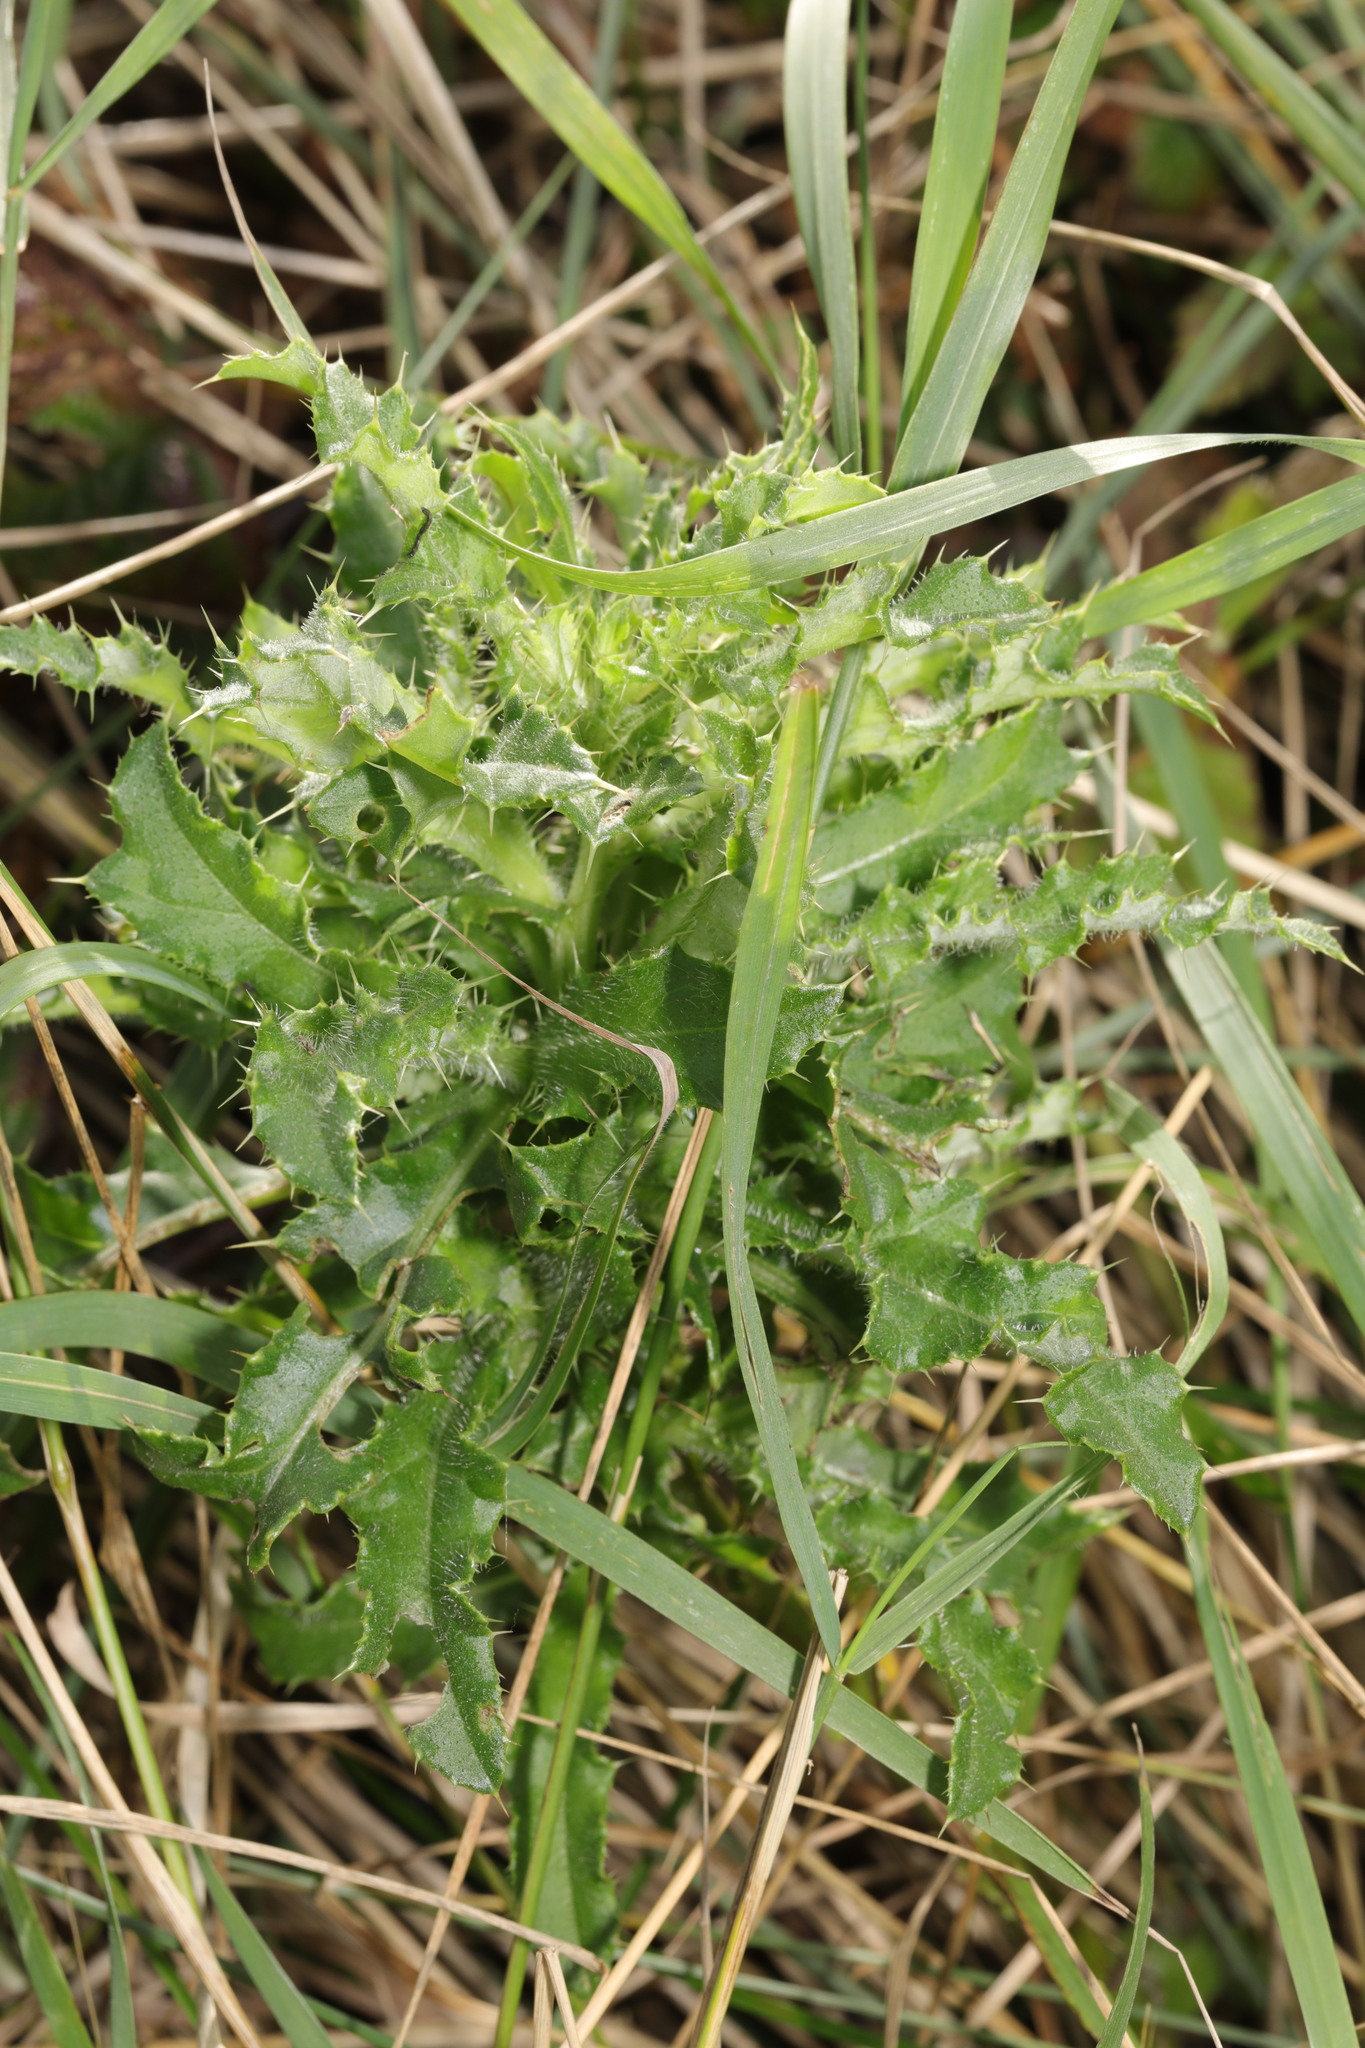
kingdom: Plantae
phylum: Tracheophyta
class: Magnoliopsida
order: Asterales
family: Asteraceae
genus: Cirsium
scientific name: Cirsium arvense
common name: Creeping thistle
